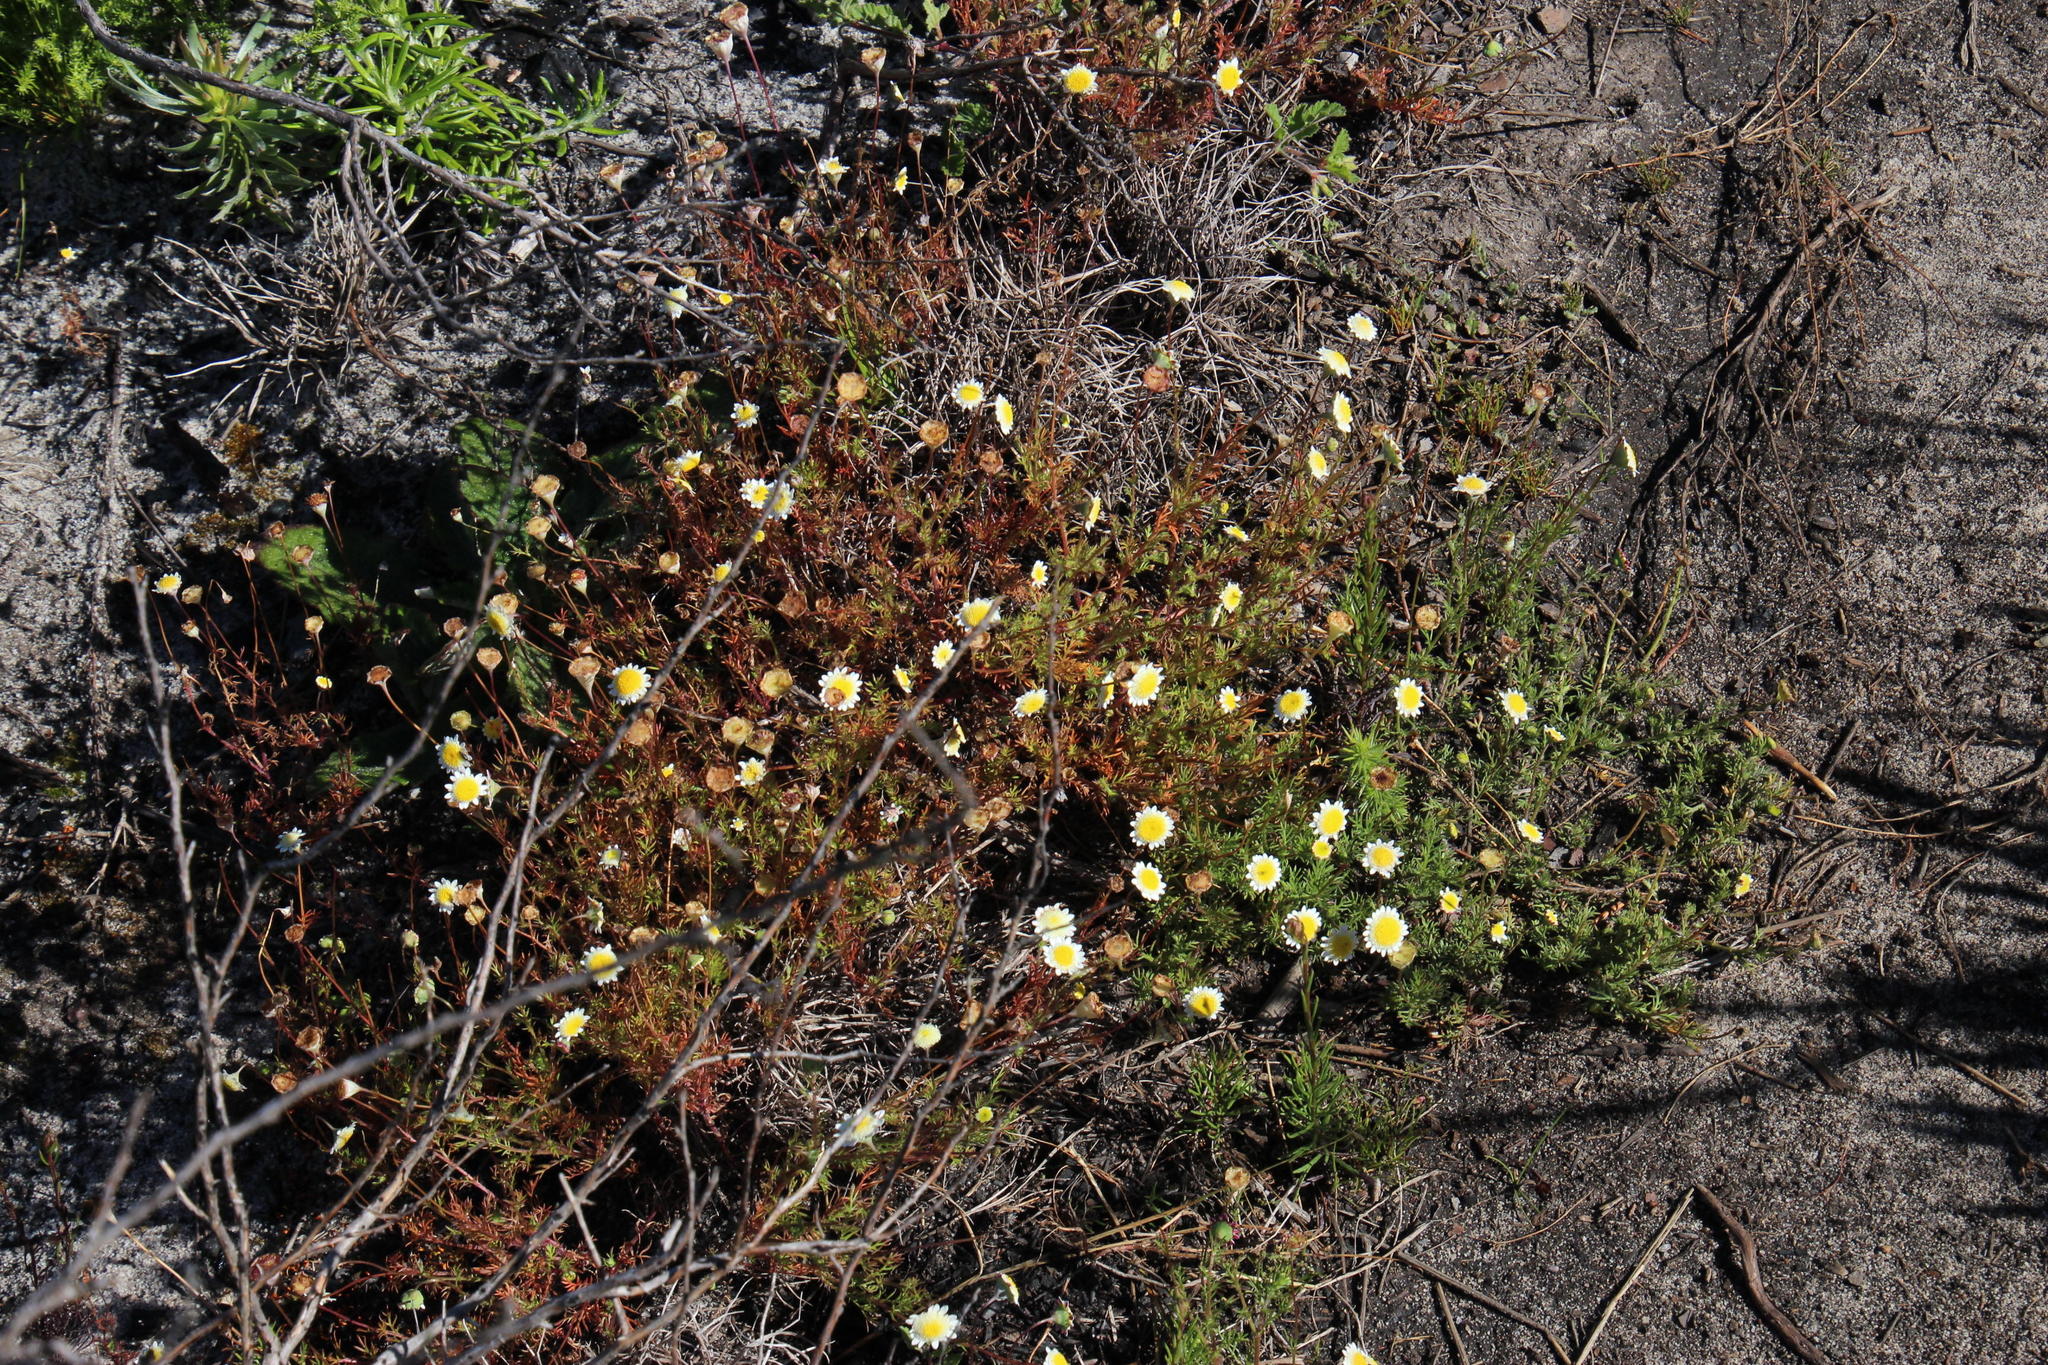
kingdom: Plantae
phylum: Tracheophyta
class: Magnoliopsida
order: Asterales
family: Asteraceae
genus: Cotula
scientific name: Cotula turbinata
